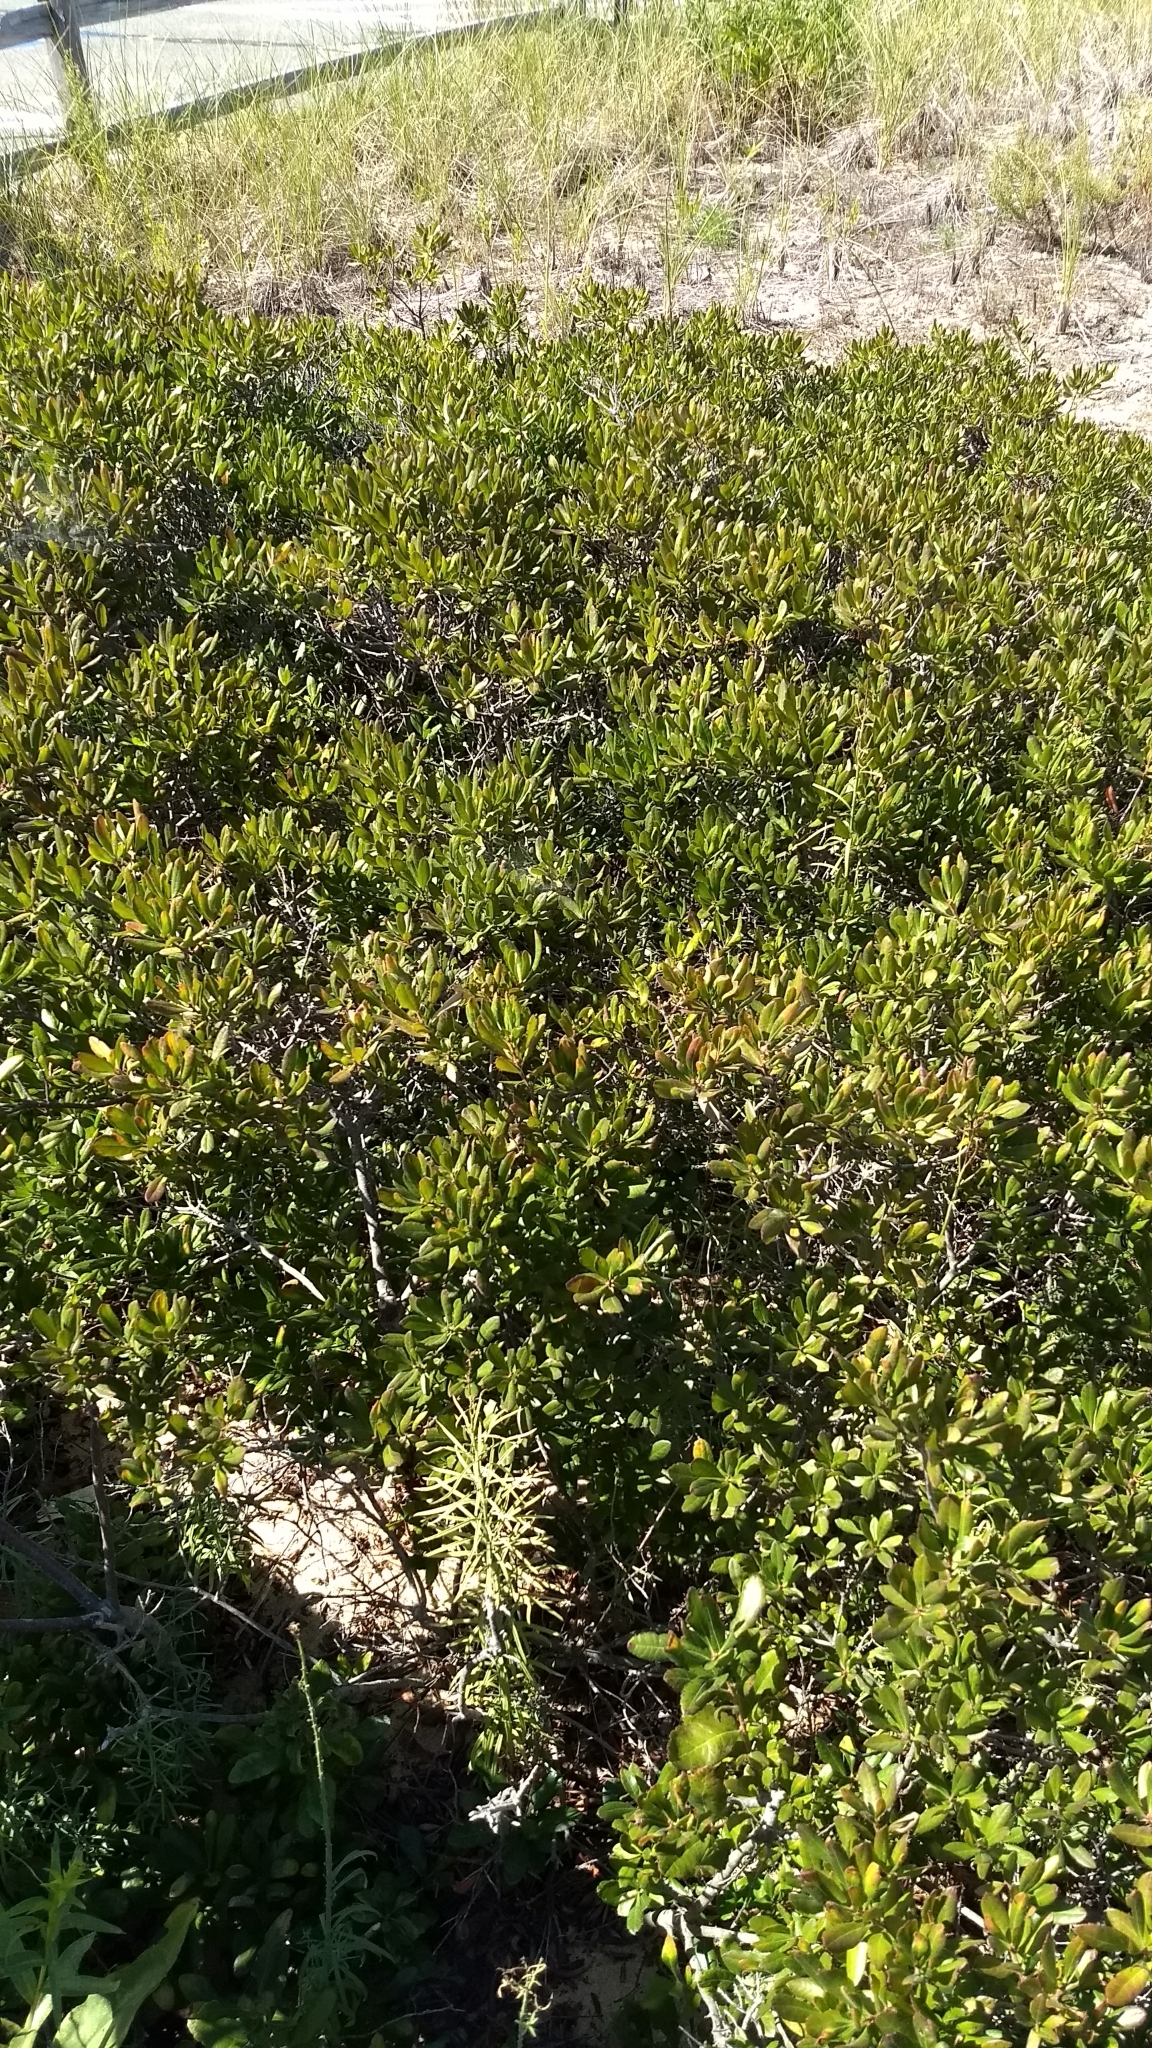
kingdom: Plantae
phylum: Tracheophyta
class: Magnoliopsida
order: Fagales
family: Myricaceae
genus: Morella
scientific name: Morella pensylvanica
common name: Northern bayberry
